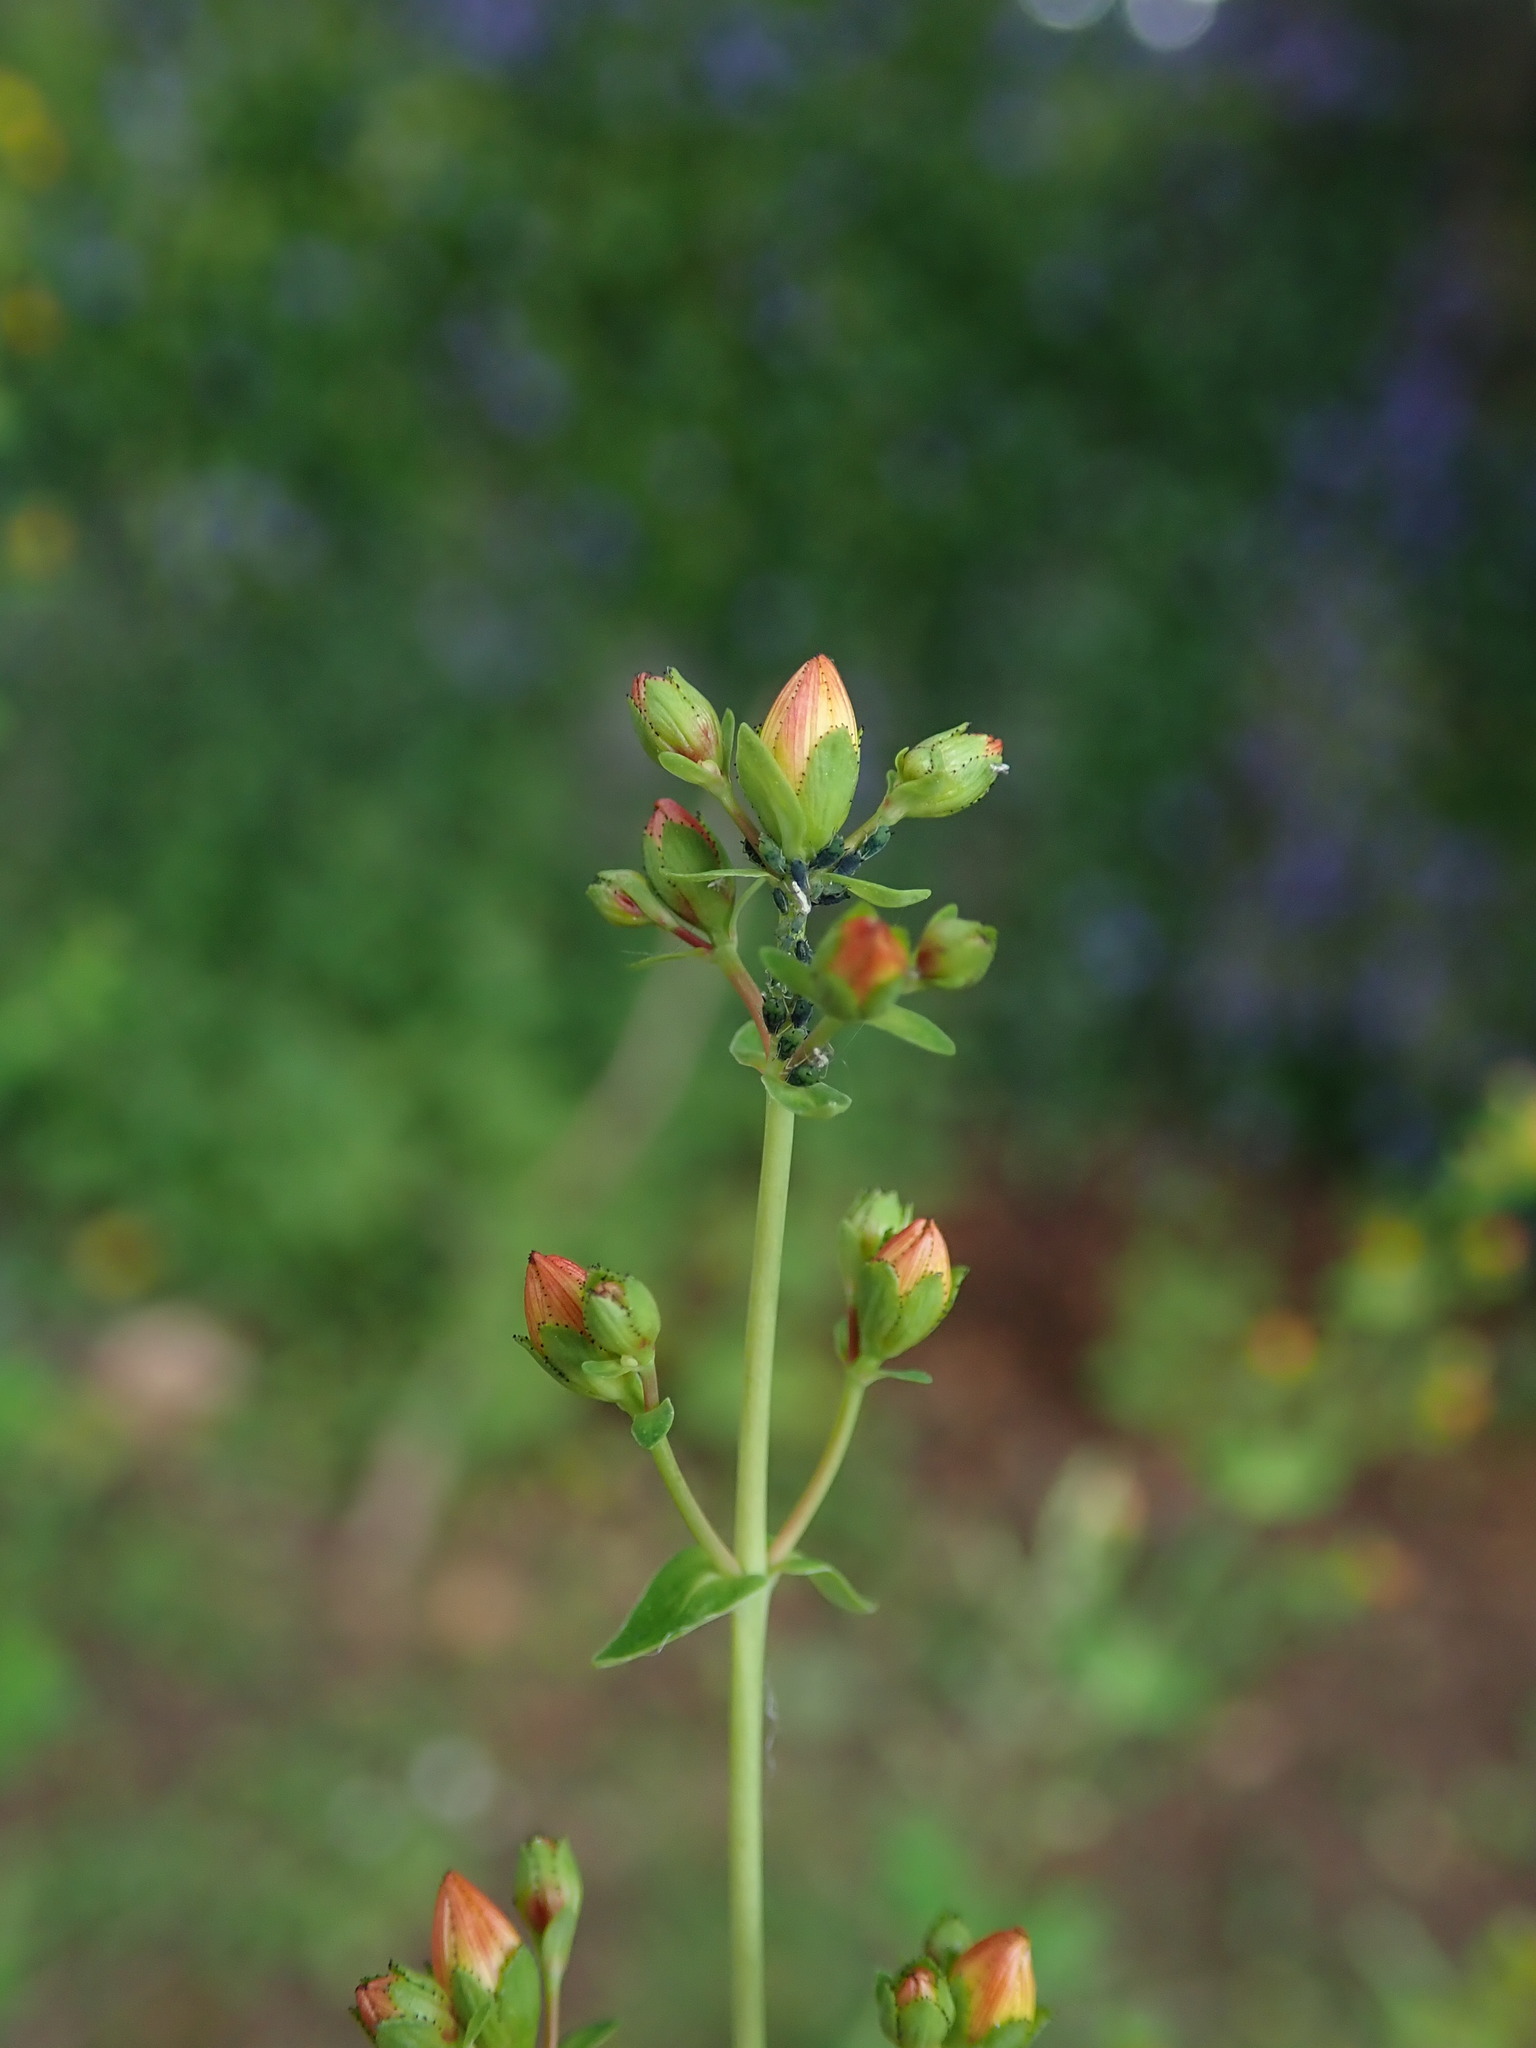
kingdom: Plantae
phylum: Tracheophyta
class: Magnoliopsida
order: Malpighiales
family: Hypericaceae
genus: Hypericum
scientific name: Hypericum pulchrum
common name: Slender st. john's-wort
